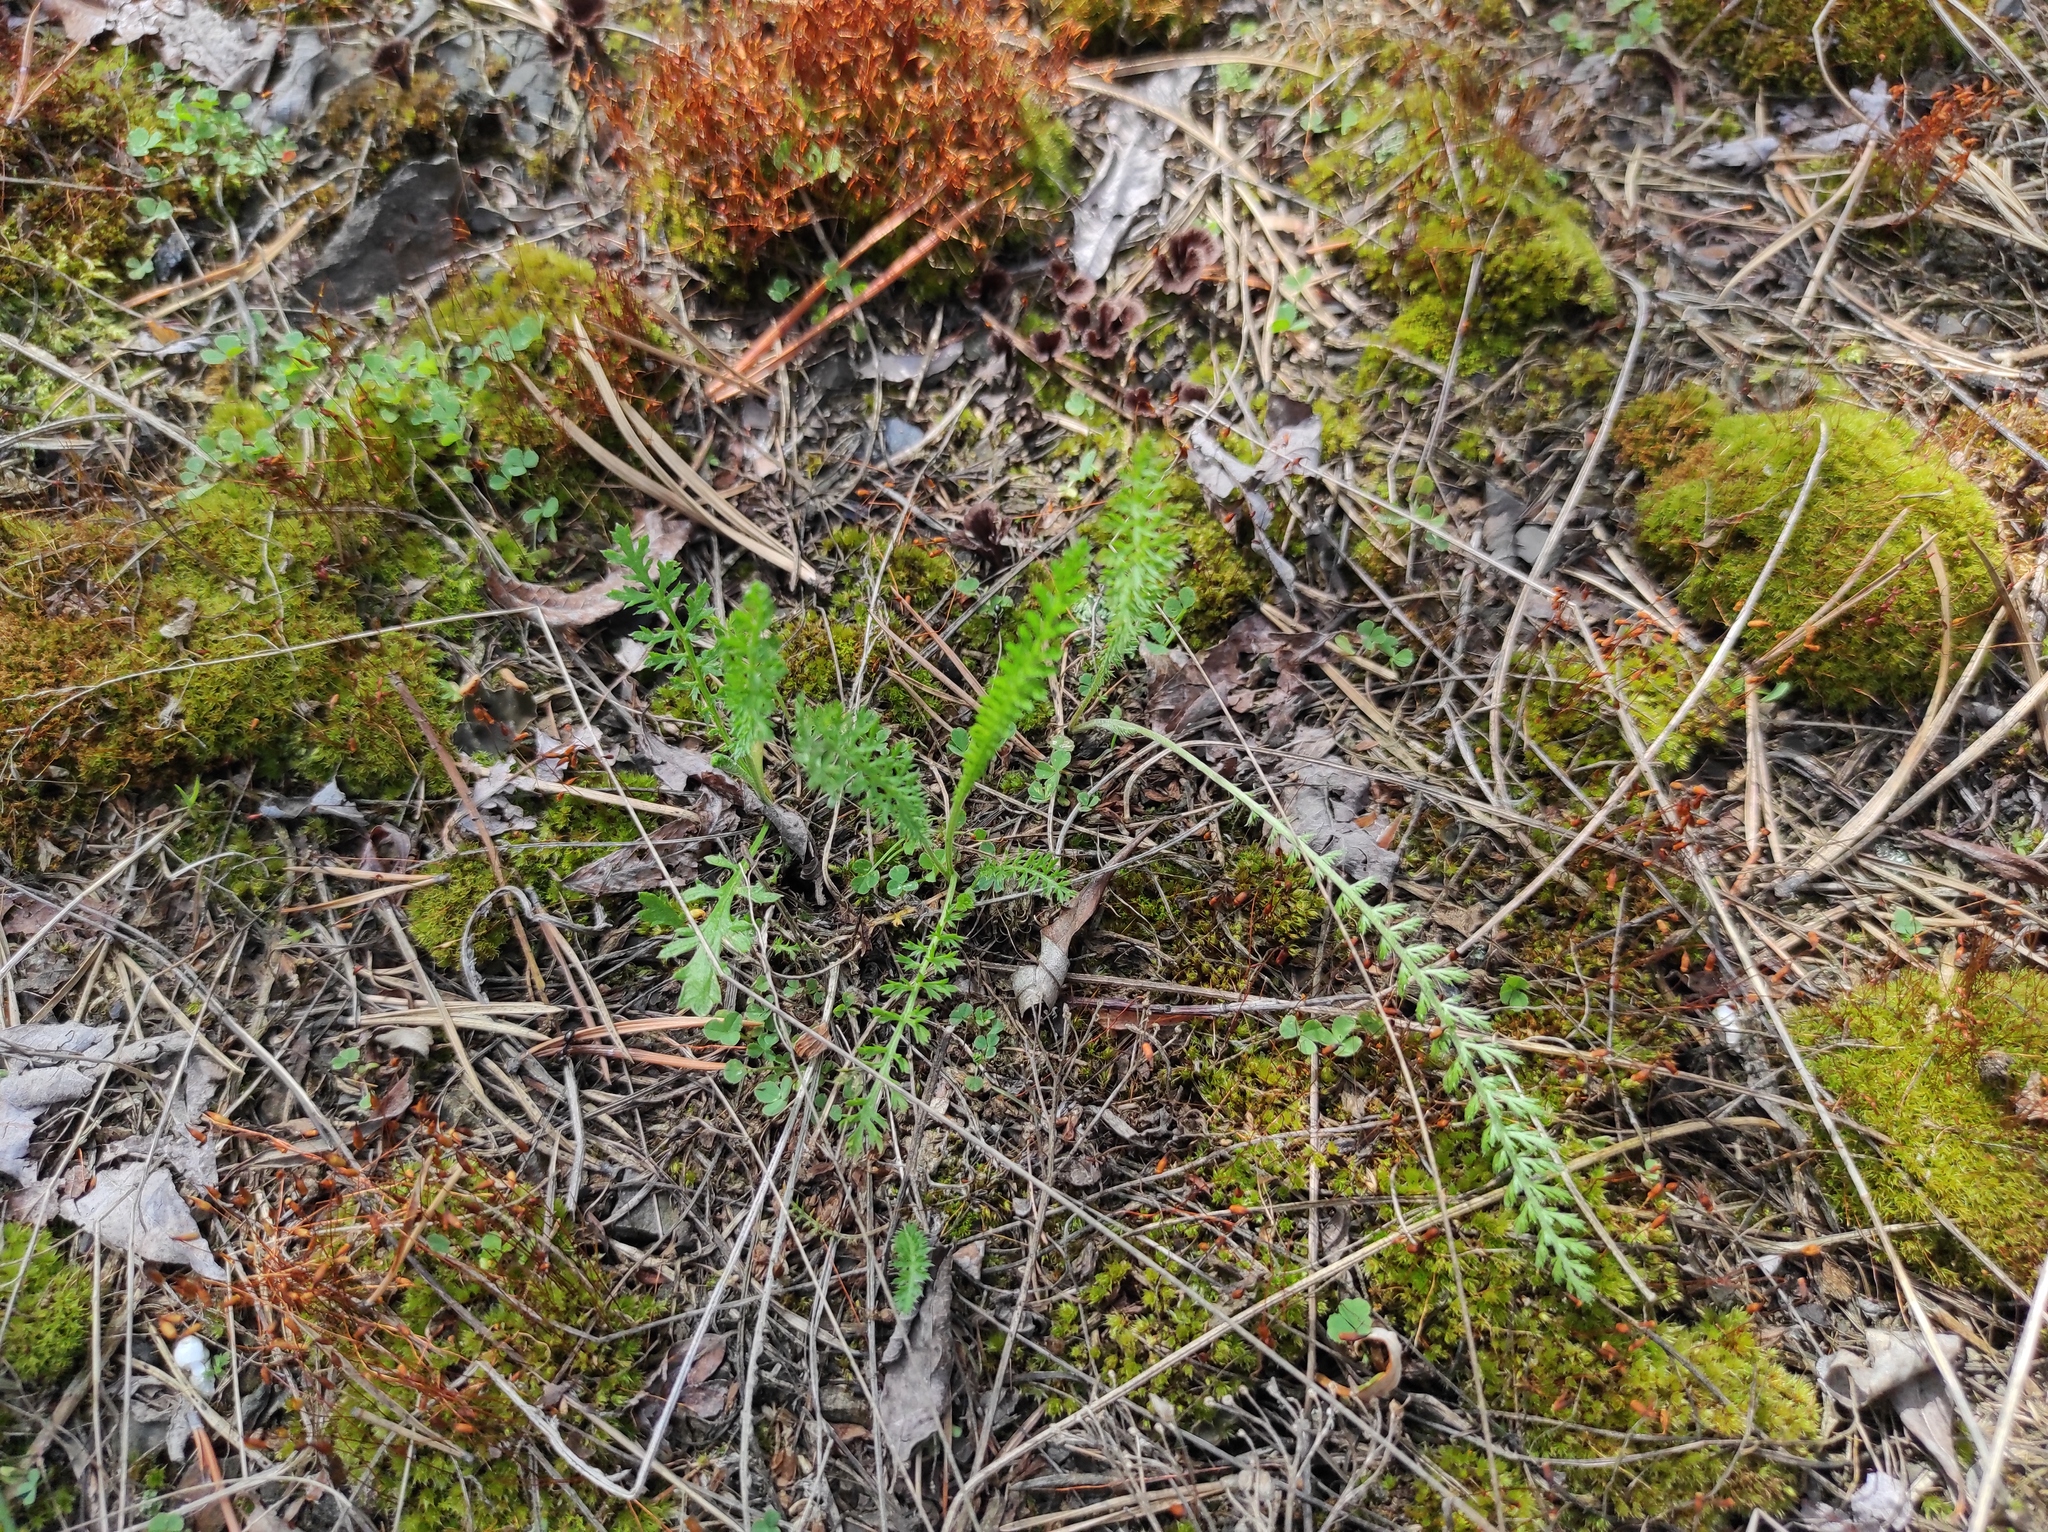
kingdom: Plantae
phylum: Tracheophyta
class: Magnoliopsida
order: Asterales
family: Asteraceae
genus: Achillea
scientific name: Achillea
